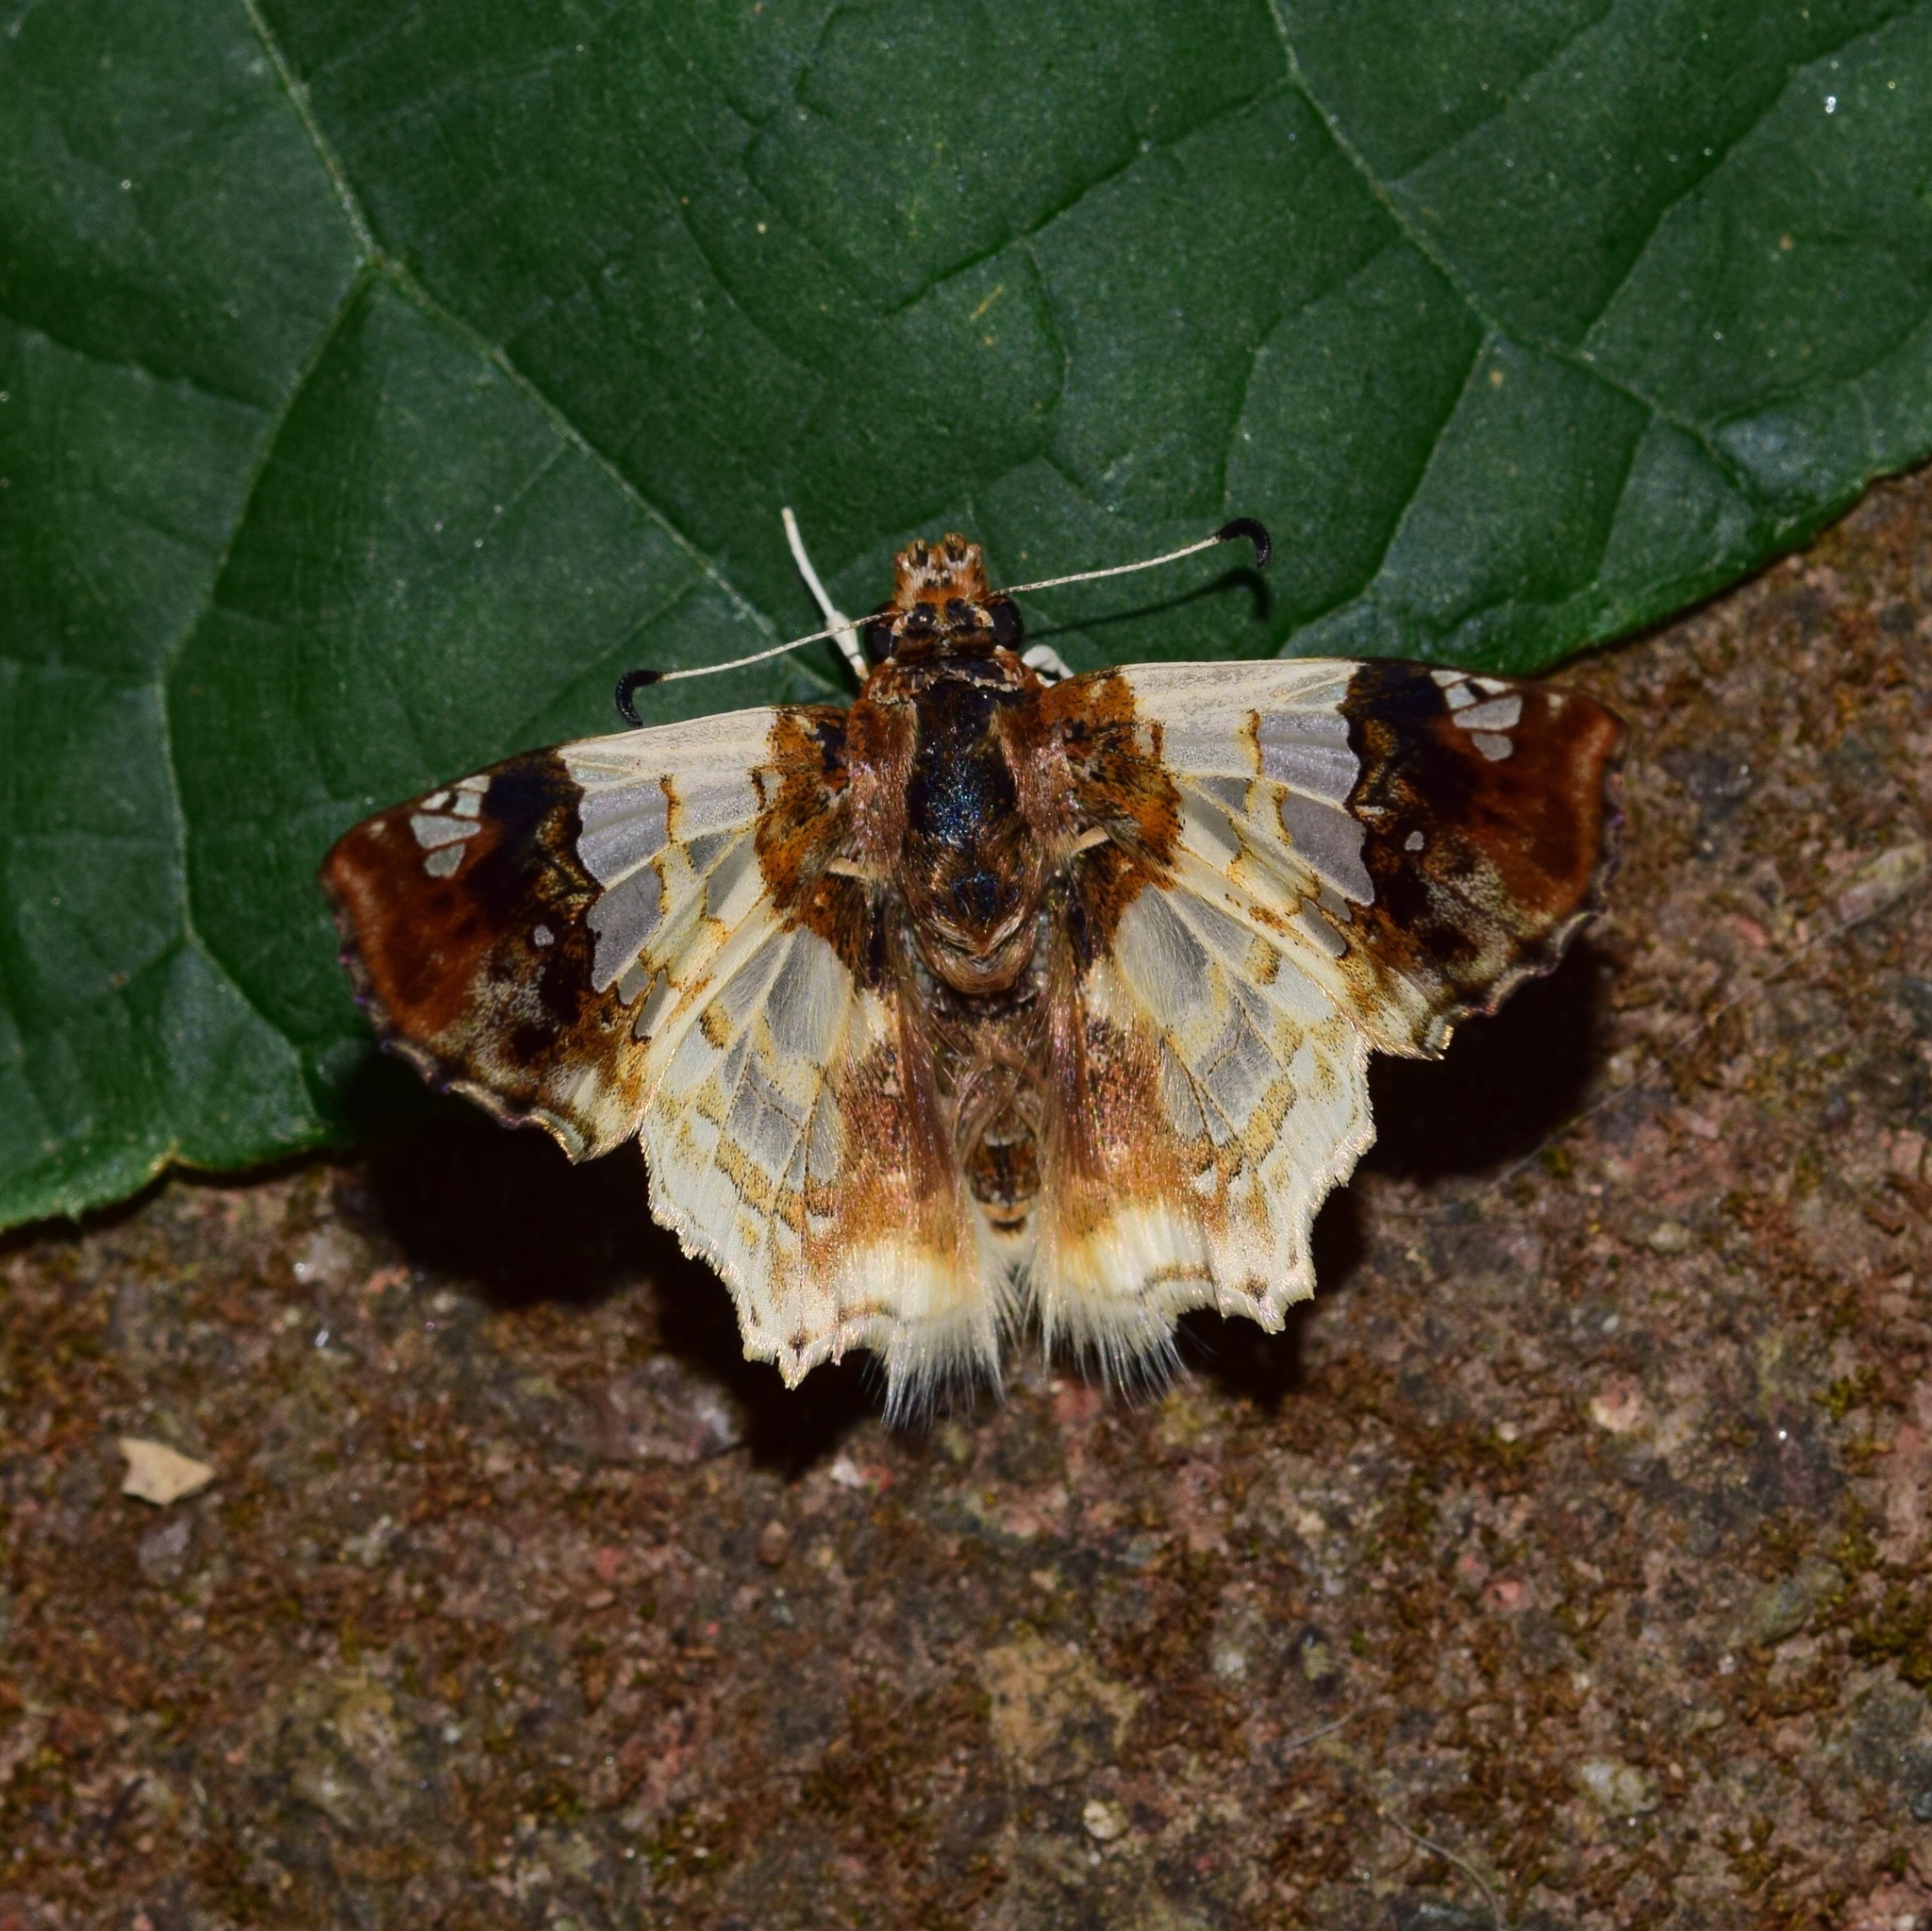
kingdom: Animalia
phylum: Arthropoda
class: Insecta
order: Lepidoptera
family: Hesperiidae
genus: Abantis
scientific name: Abantis
